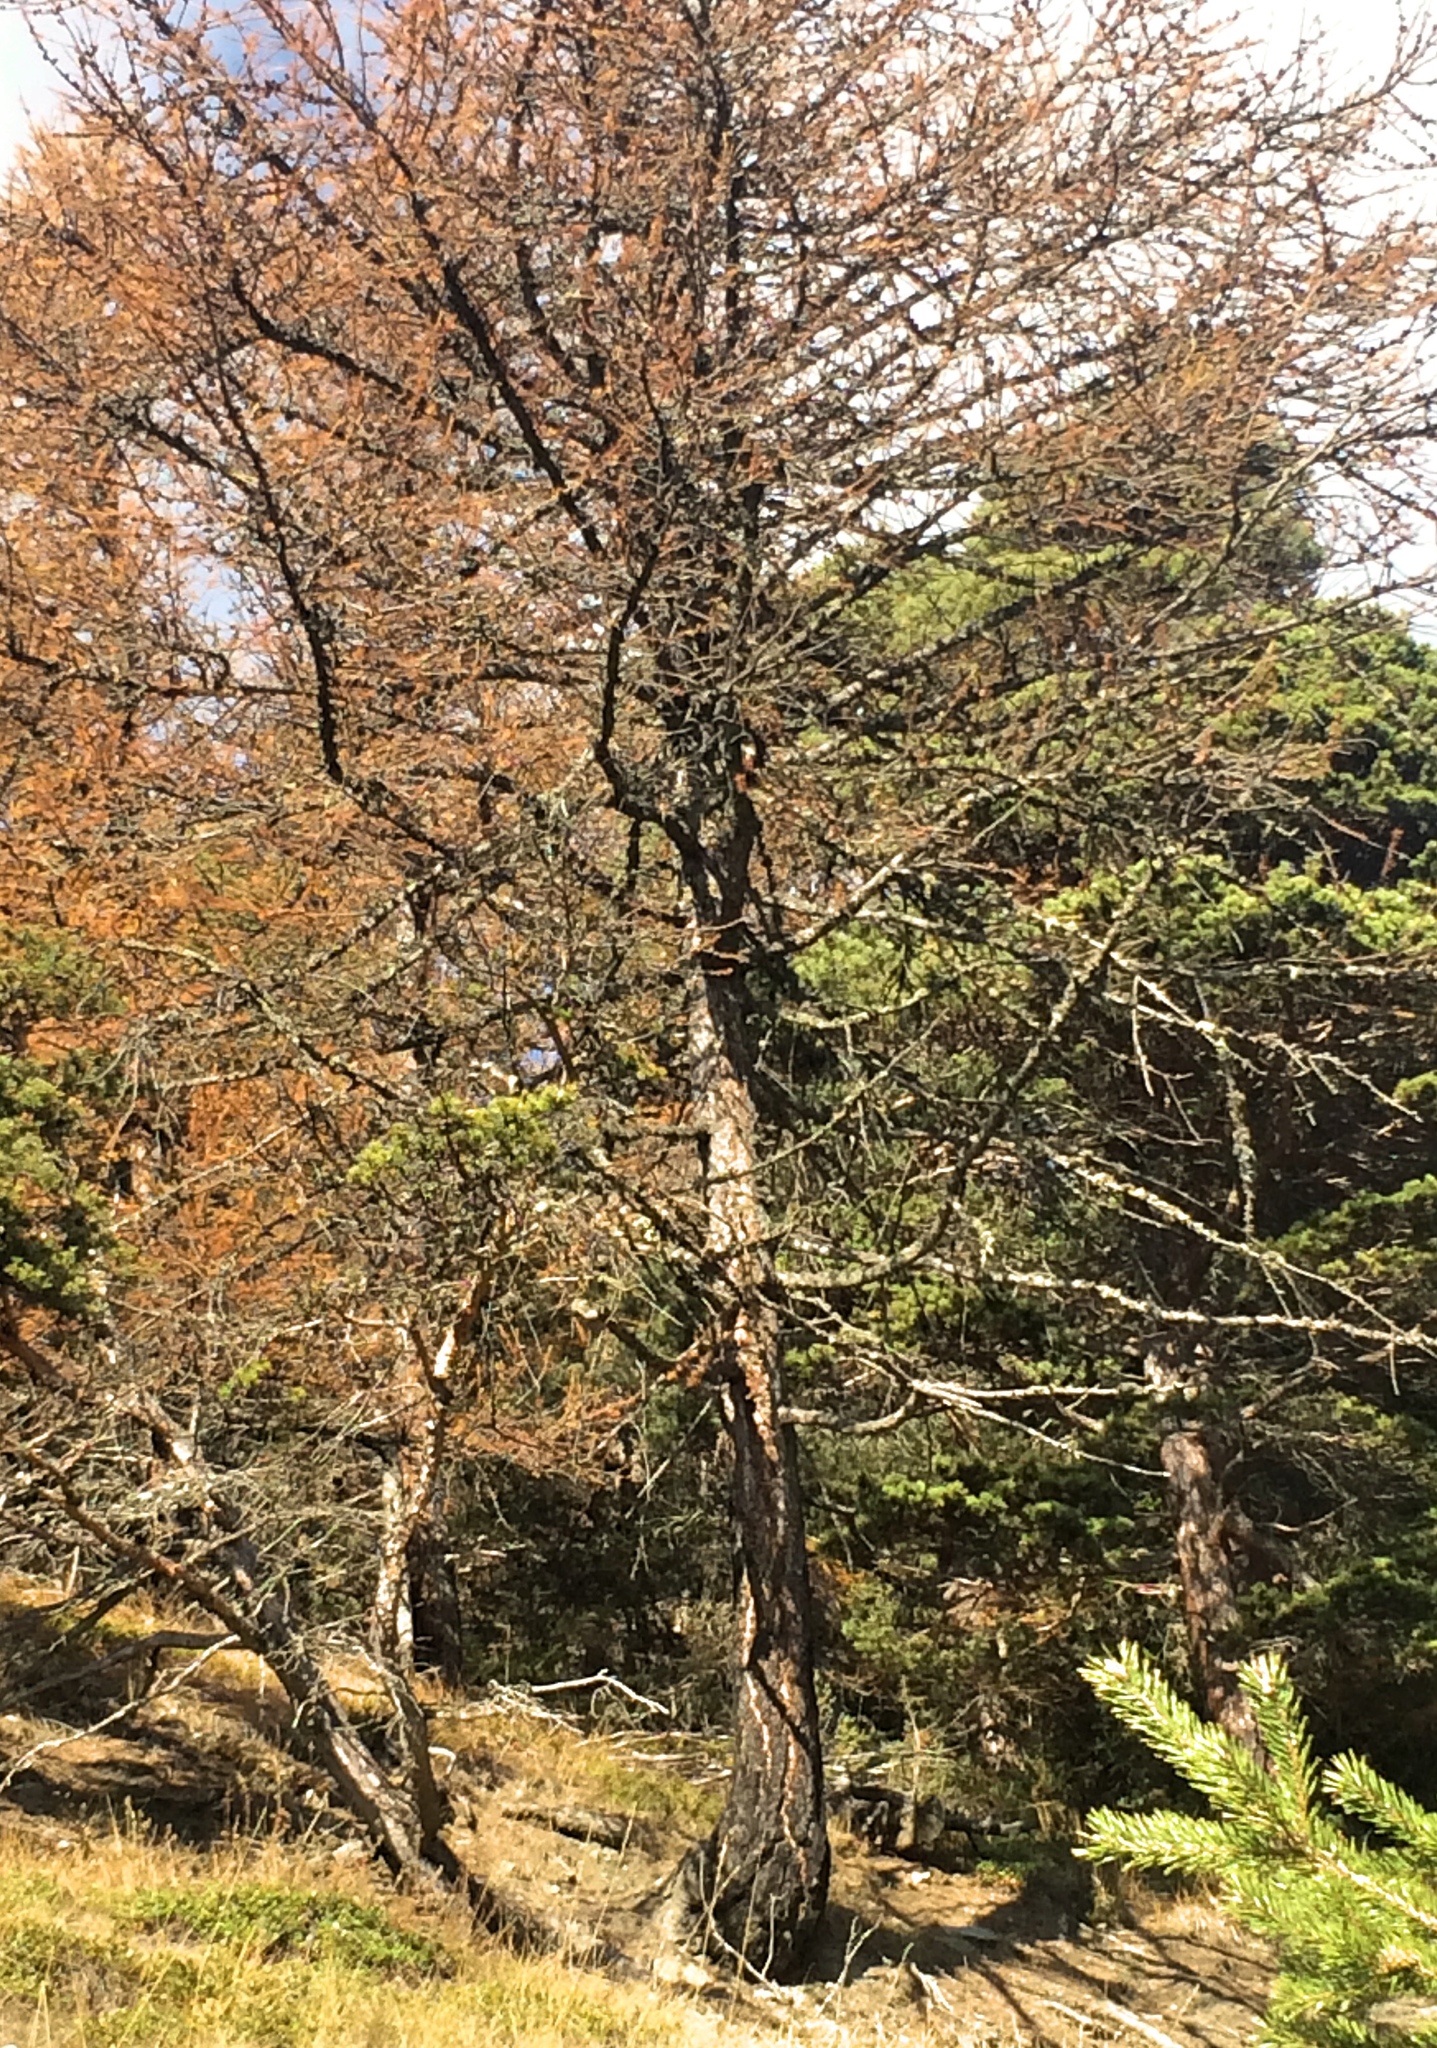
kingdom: Plantae
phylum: Tracheophyta
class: Pinopsida
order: Pinales
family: Pinaceae
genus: Larix
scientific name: Larix decidua
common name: European larch
